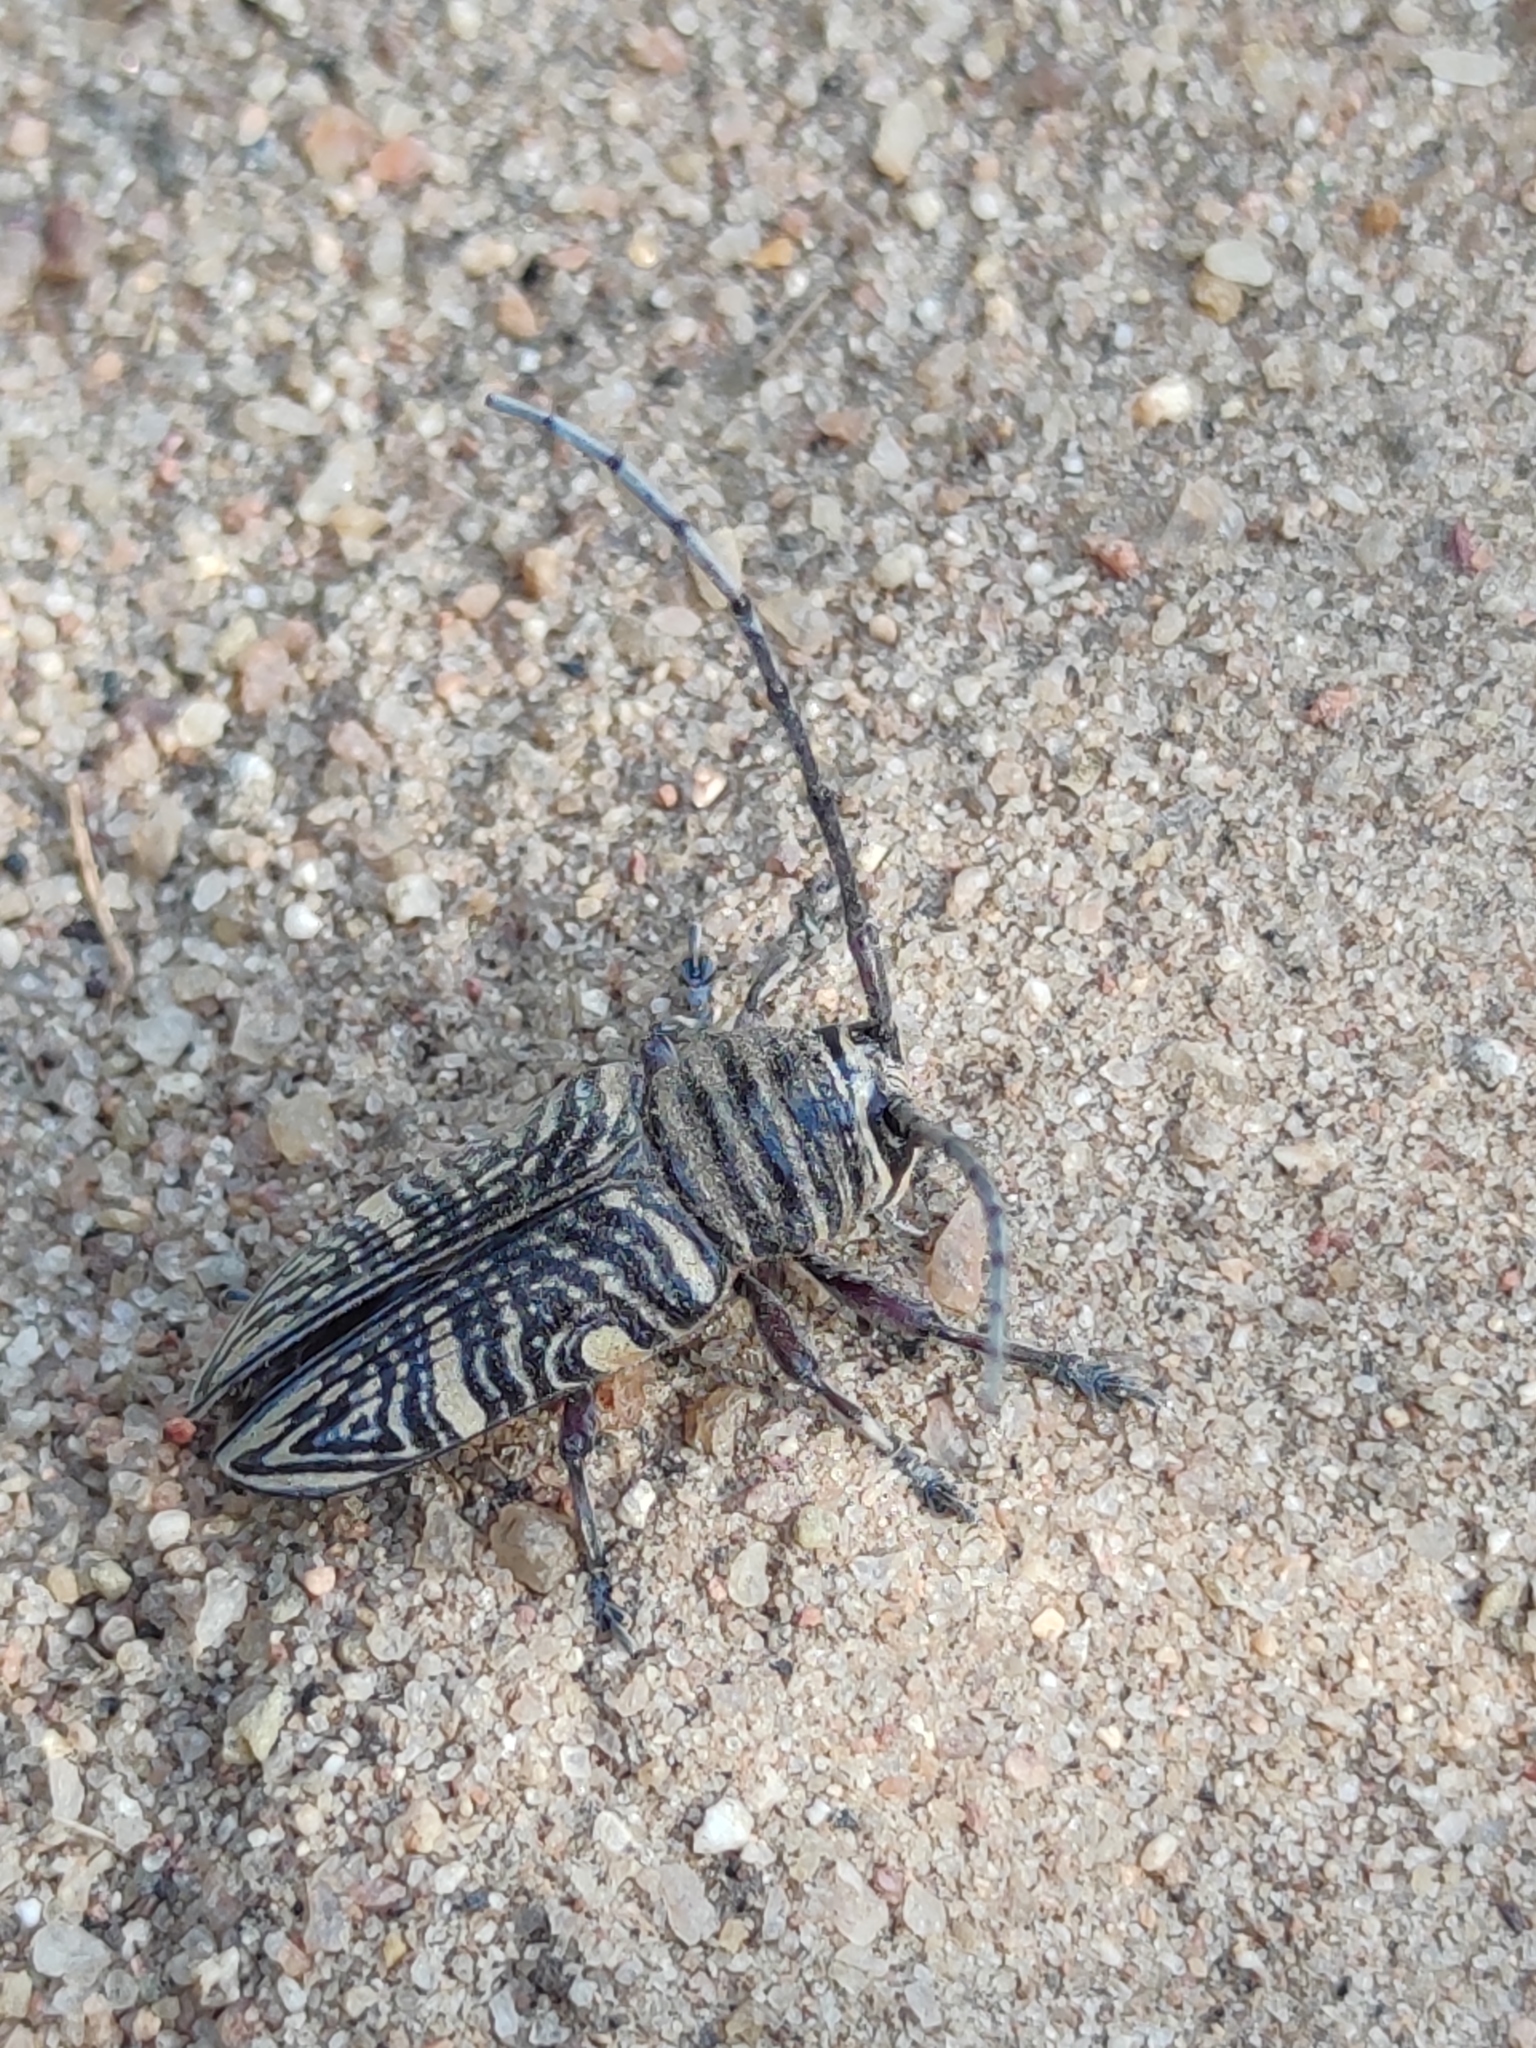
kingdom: Animalia
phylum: Arthropoda
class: Insecta
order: Coleoptera
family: Cerambycidae
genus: Zographus
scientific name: Zographus hieroglyphicus
